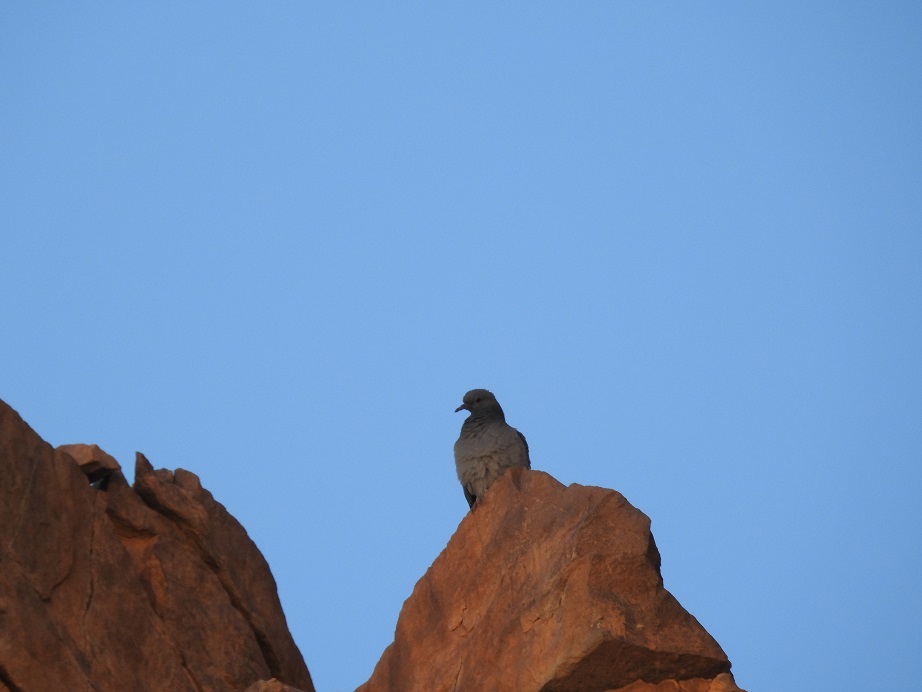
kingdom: Animalia
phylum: Chordata
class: Aves
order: Columbiformes
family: Columbidae
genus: Columba
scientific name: Columba livia
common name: Rock pigeon
